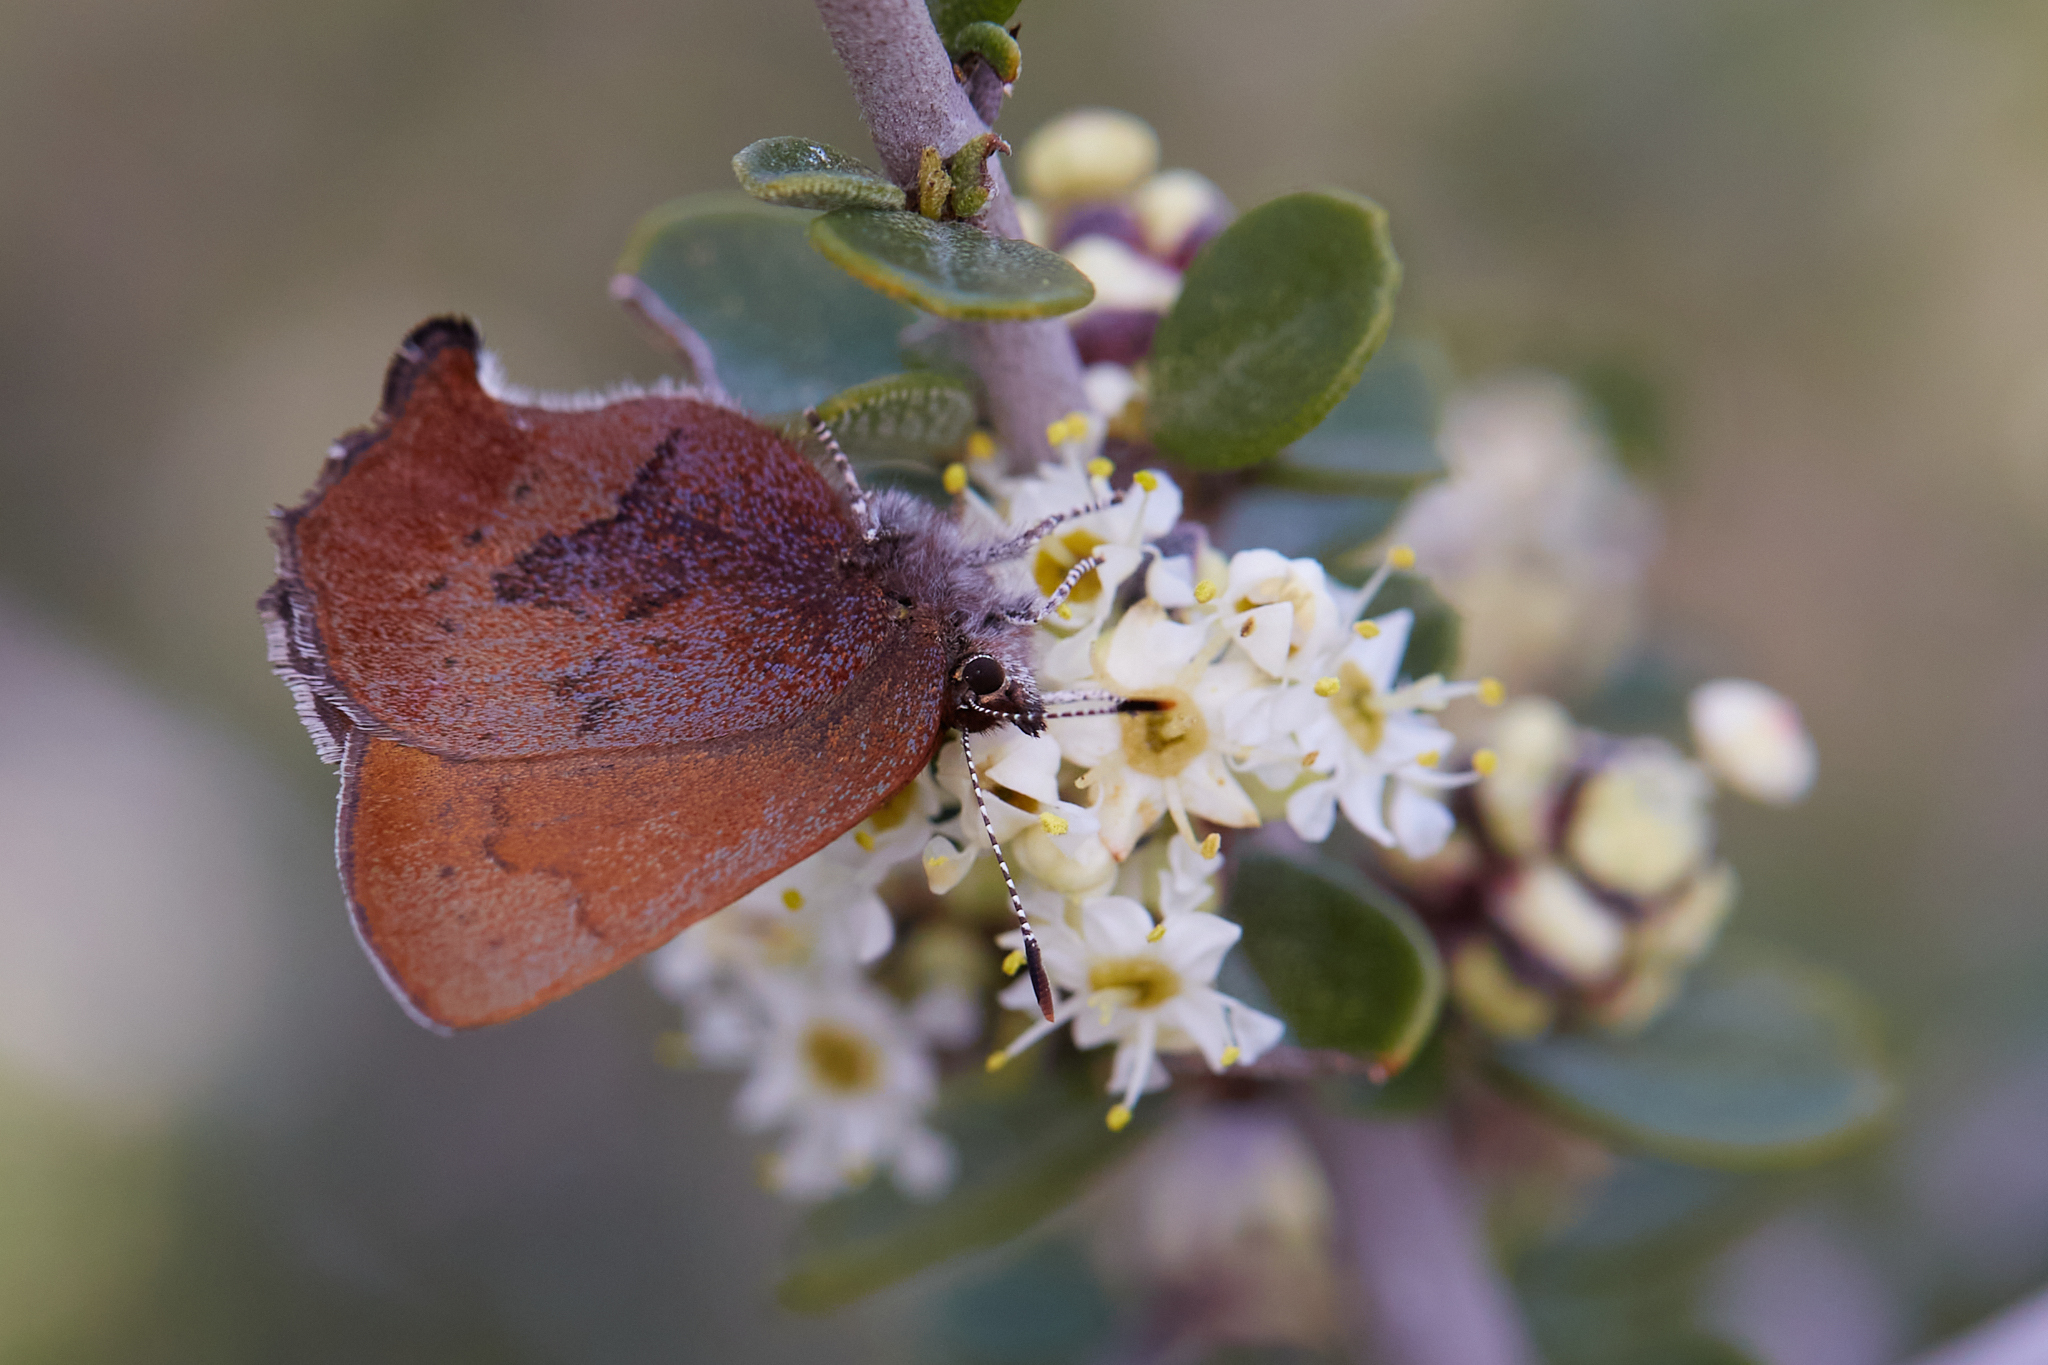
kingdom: Animalia
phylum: Arthropoda
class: Insecta
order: Lepidoptera
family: Lycaenidae
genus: Incisalia
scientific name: Incisalia irioides
